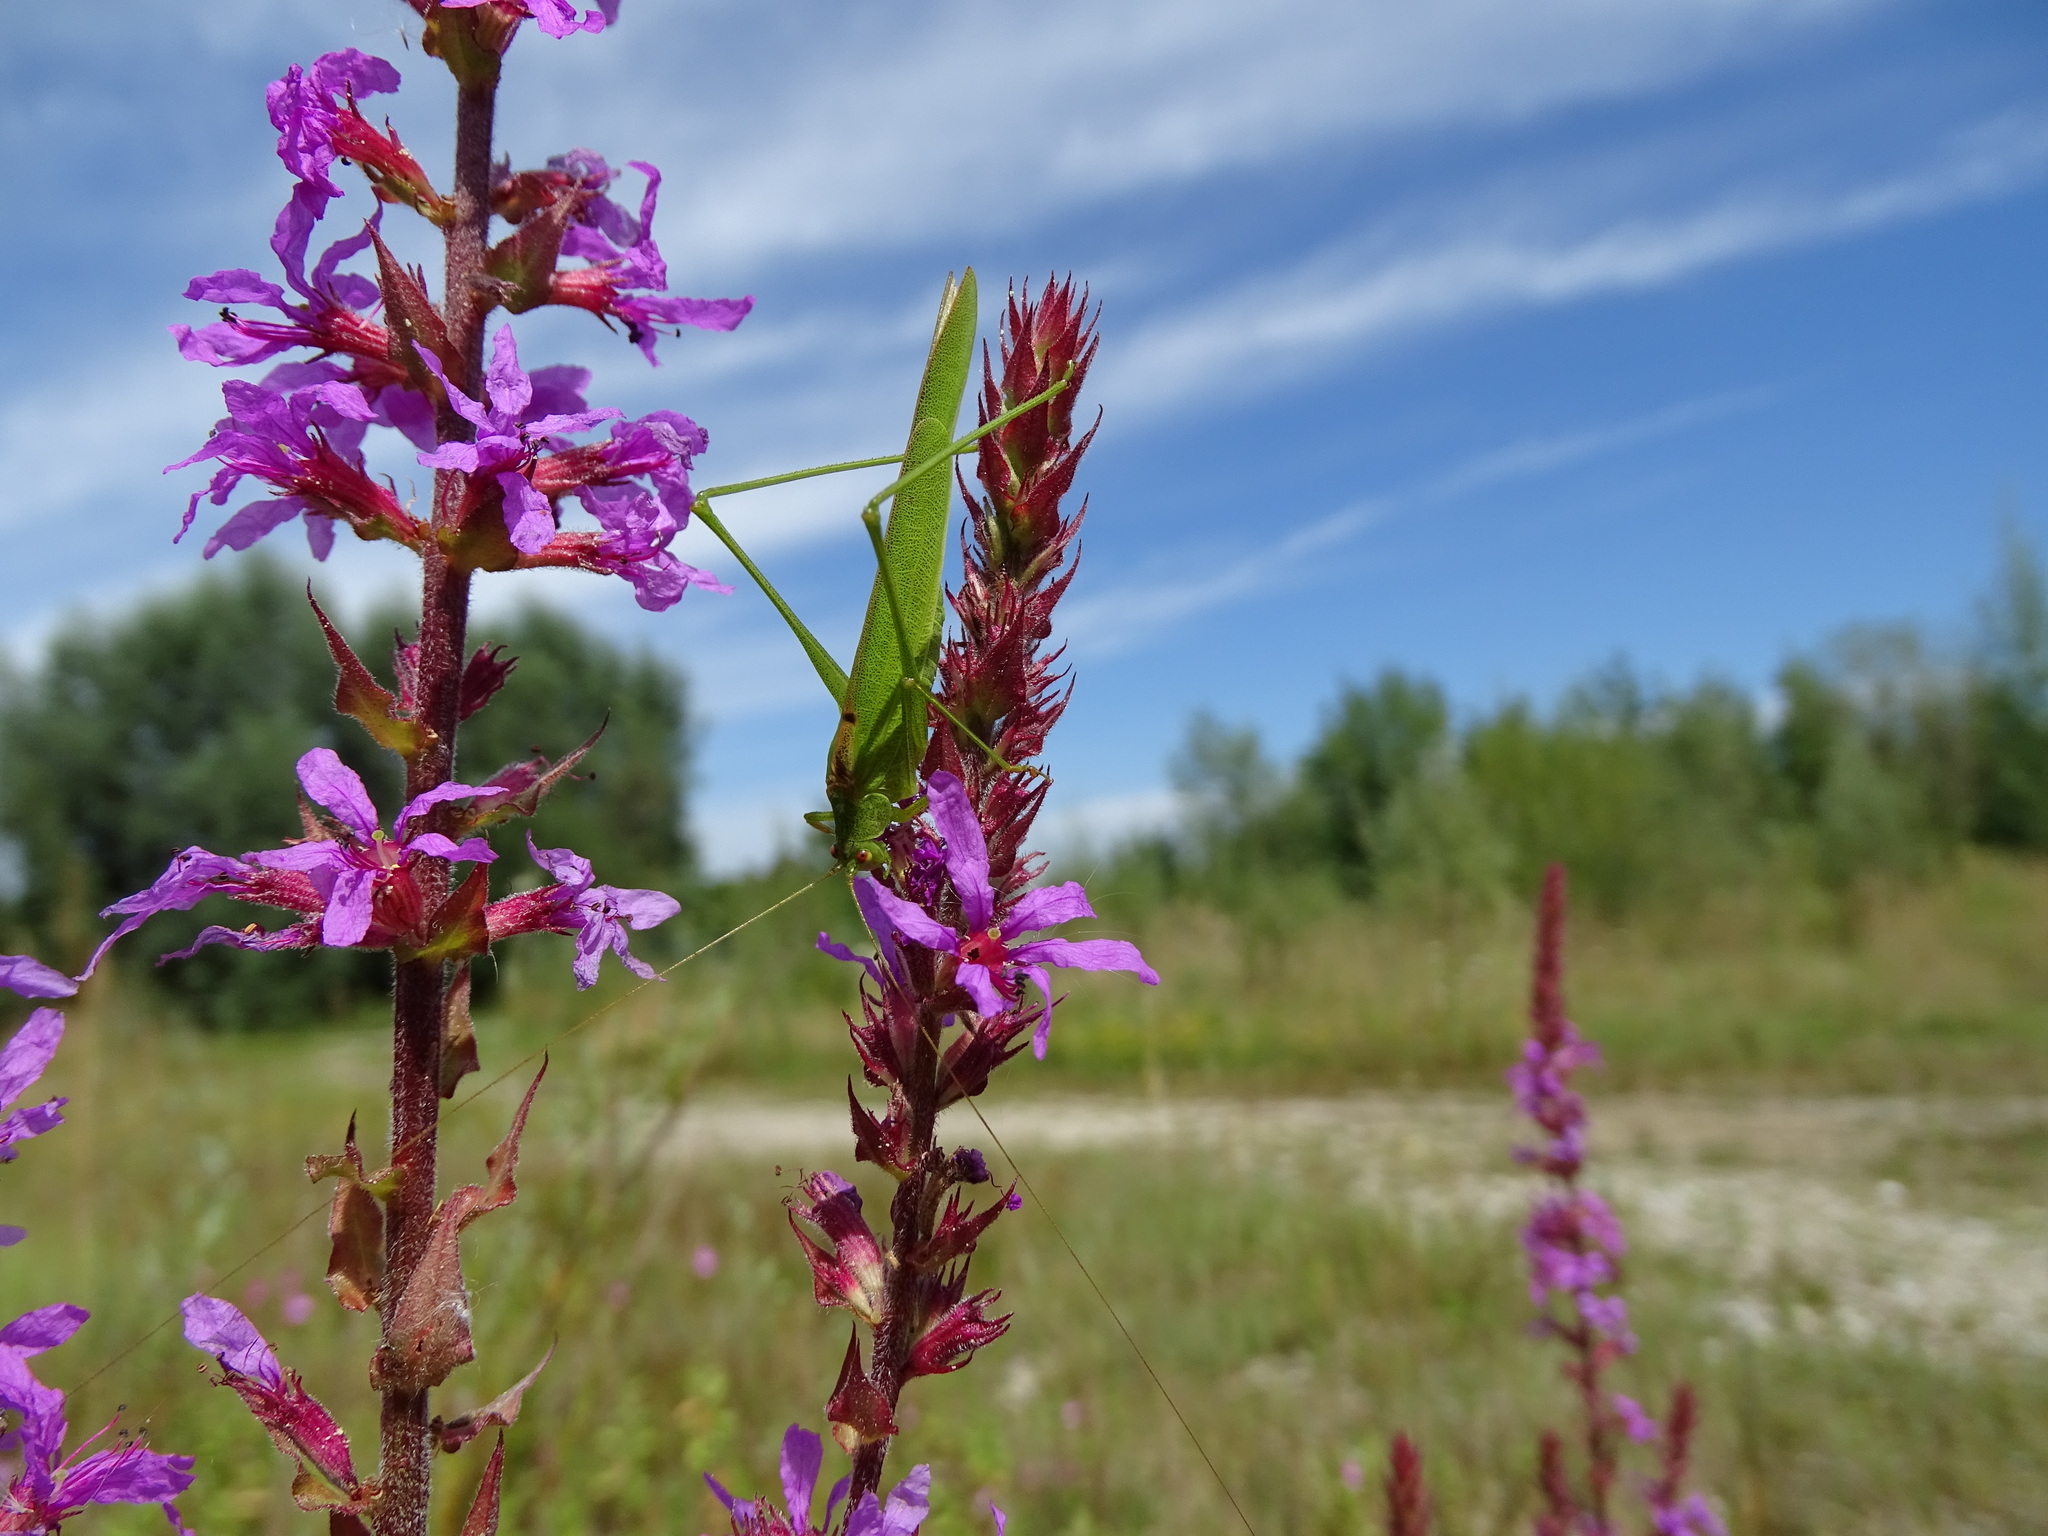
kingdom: Animalia
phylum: Arthropoda
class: Insecta
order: Orthoptera
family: Tettigoniidae
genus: Phaneroptera
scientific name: Phaneroptera falcata
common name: Sickle-bearing bush-cricket
